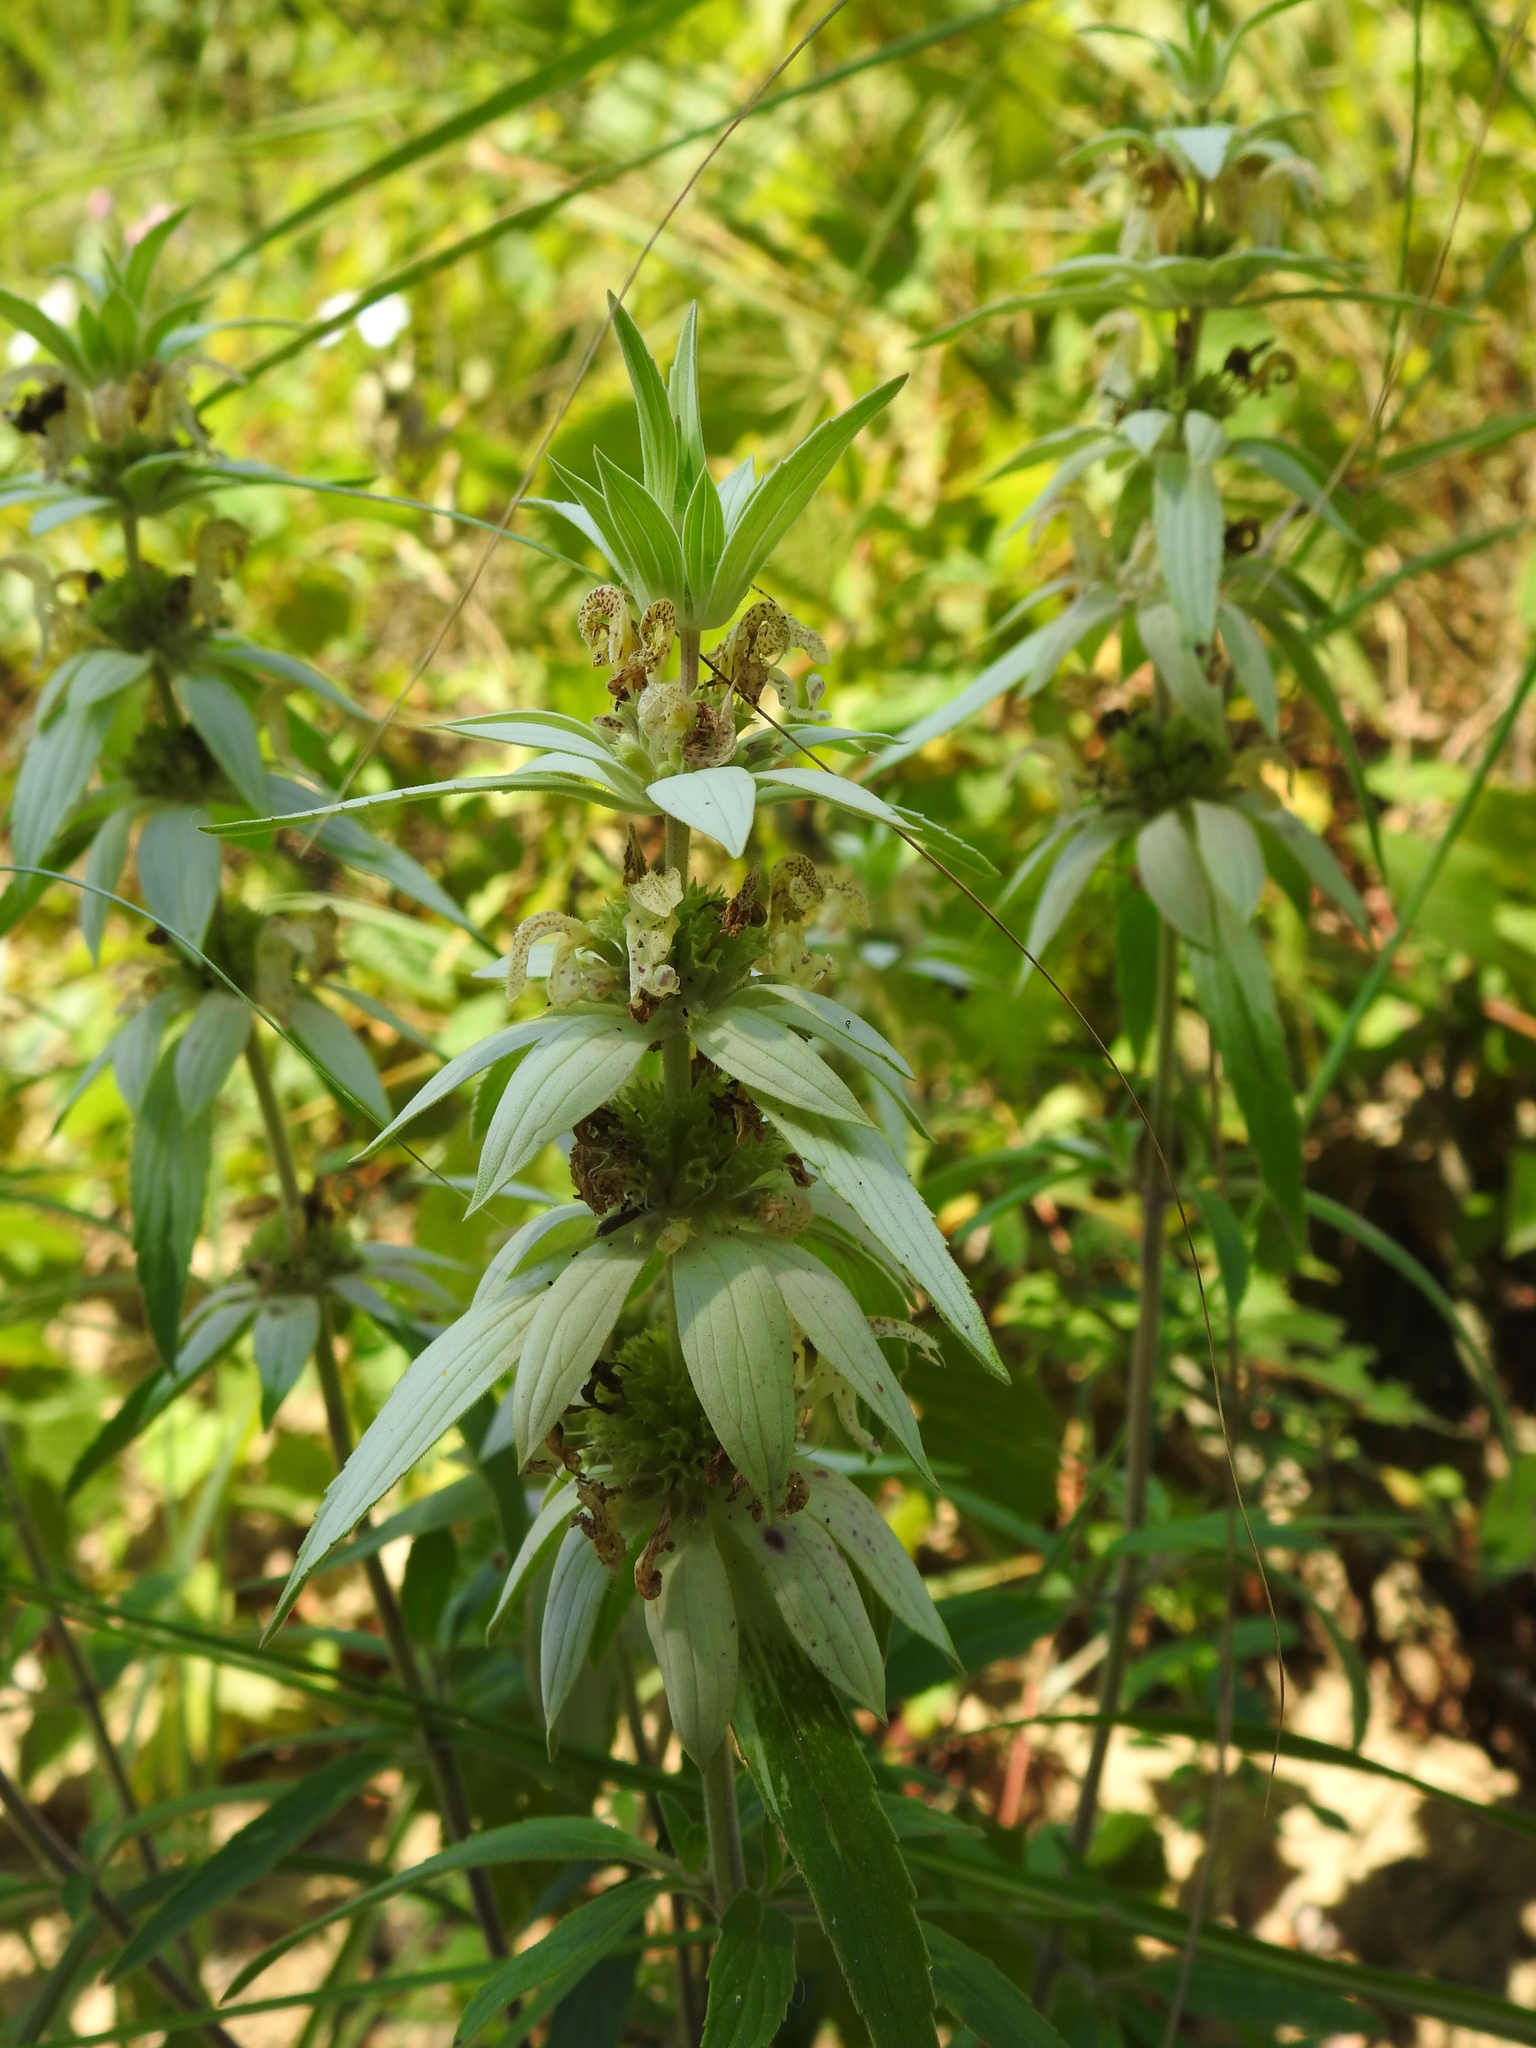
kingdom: Plantae
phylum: Tracheophyta
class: Magnoliopsida
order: Lamiales
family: Lamiaceae
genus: Monarda
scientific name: Monarda punctata
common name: Dotted monarda
